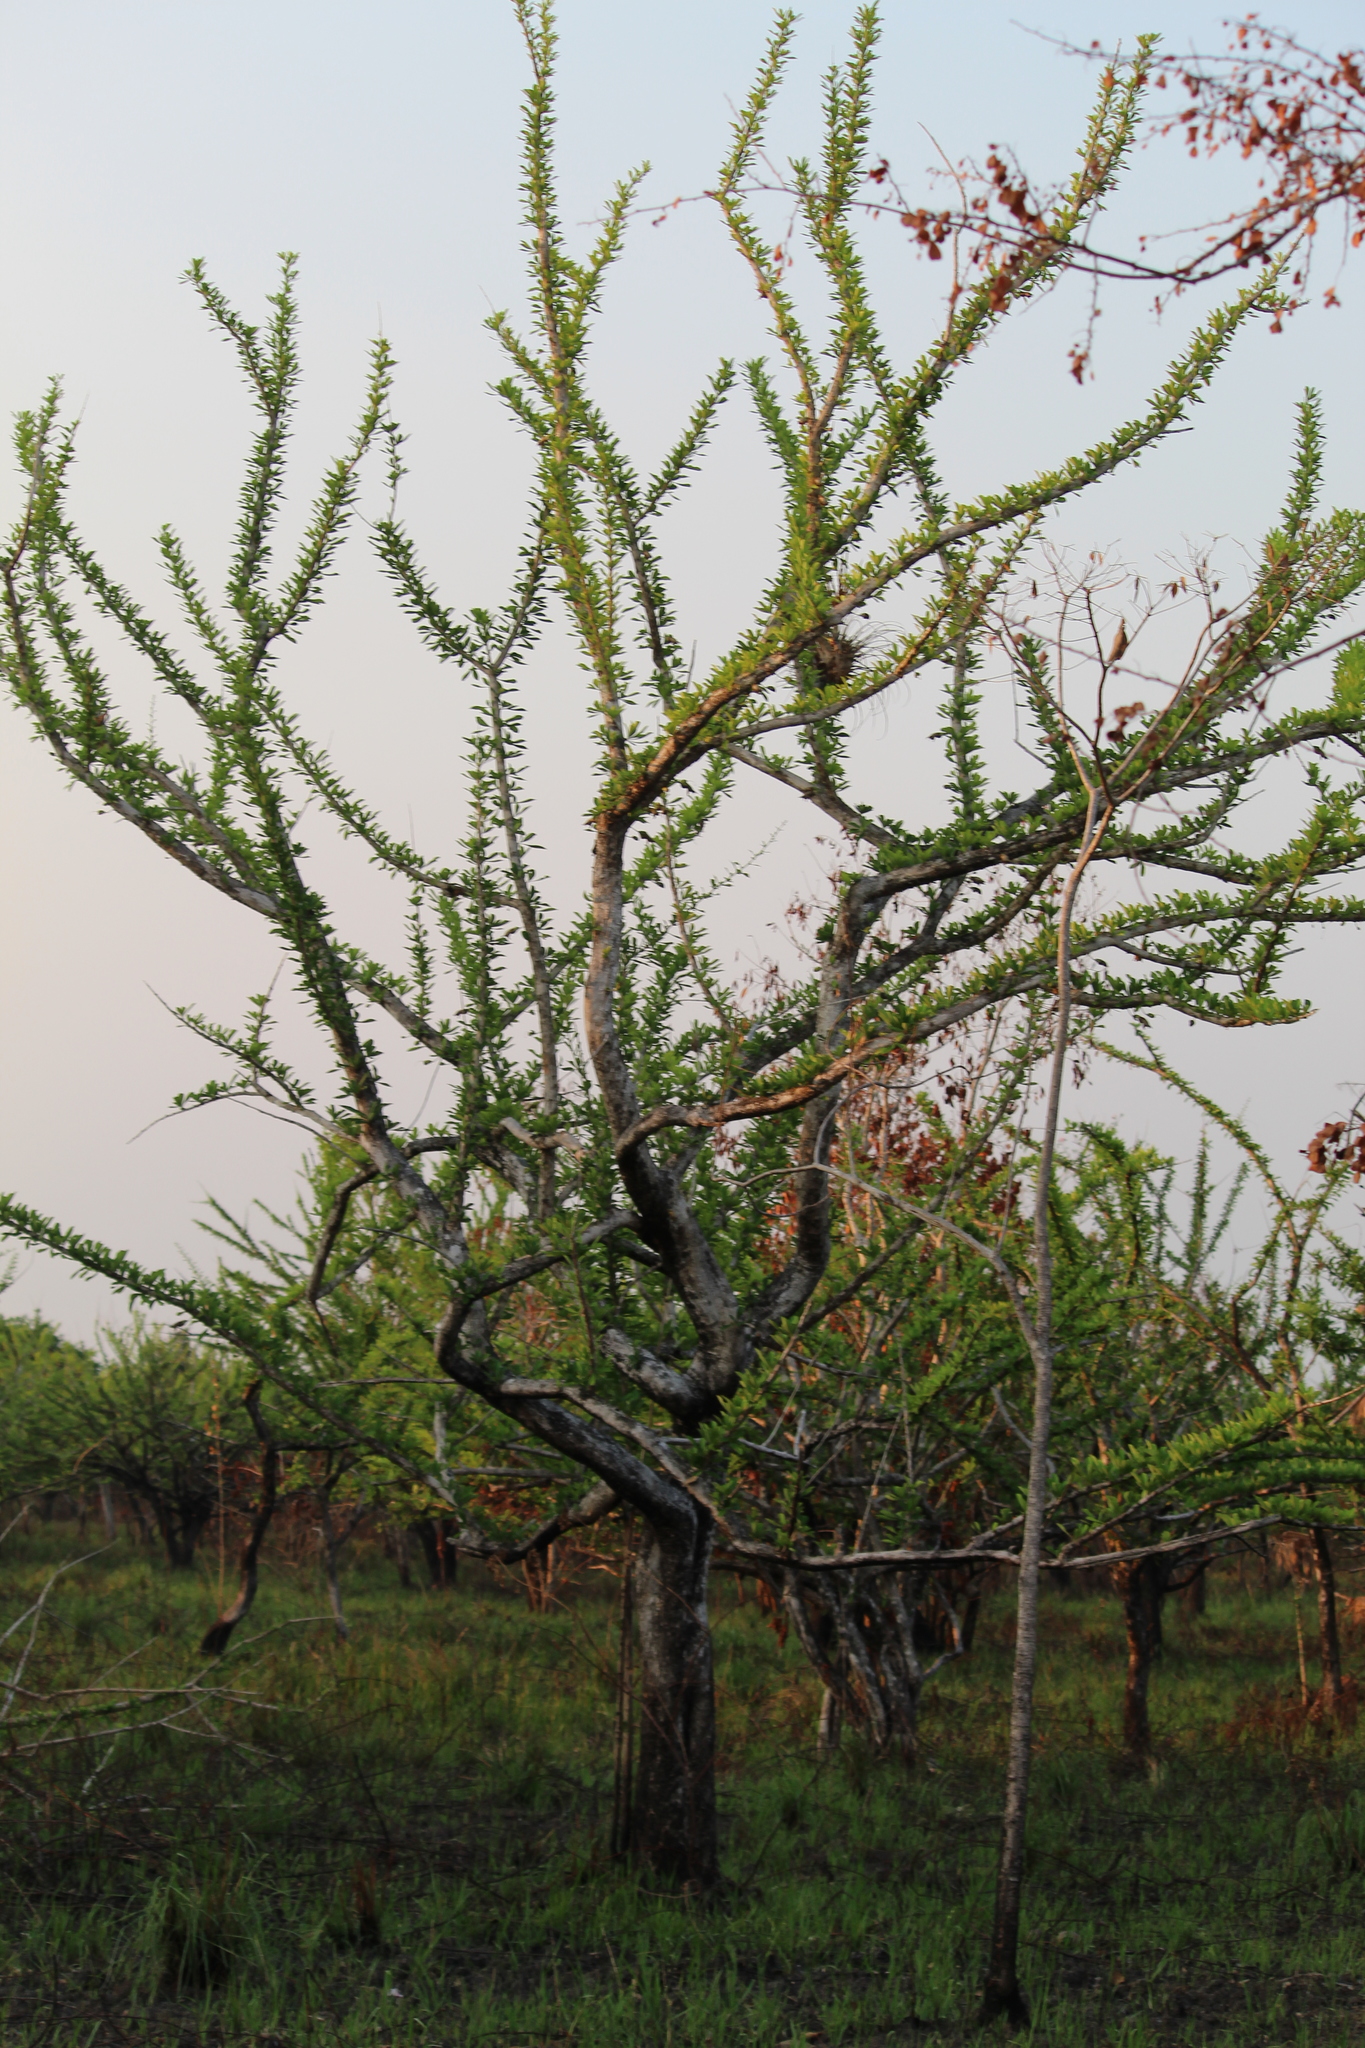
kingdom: Plantae
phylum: Tracheophyta
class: Magnoliopsida
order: Lamiales
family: Bignoniaceae
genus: Crescentia
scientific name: Crescentia cujete
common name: Calabash
